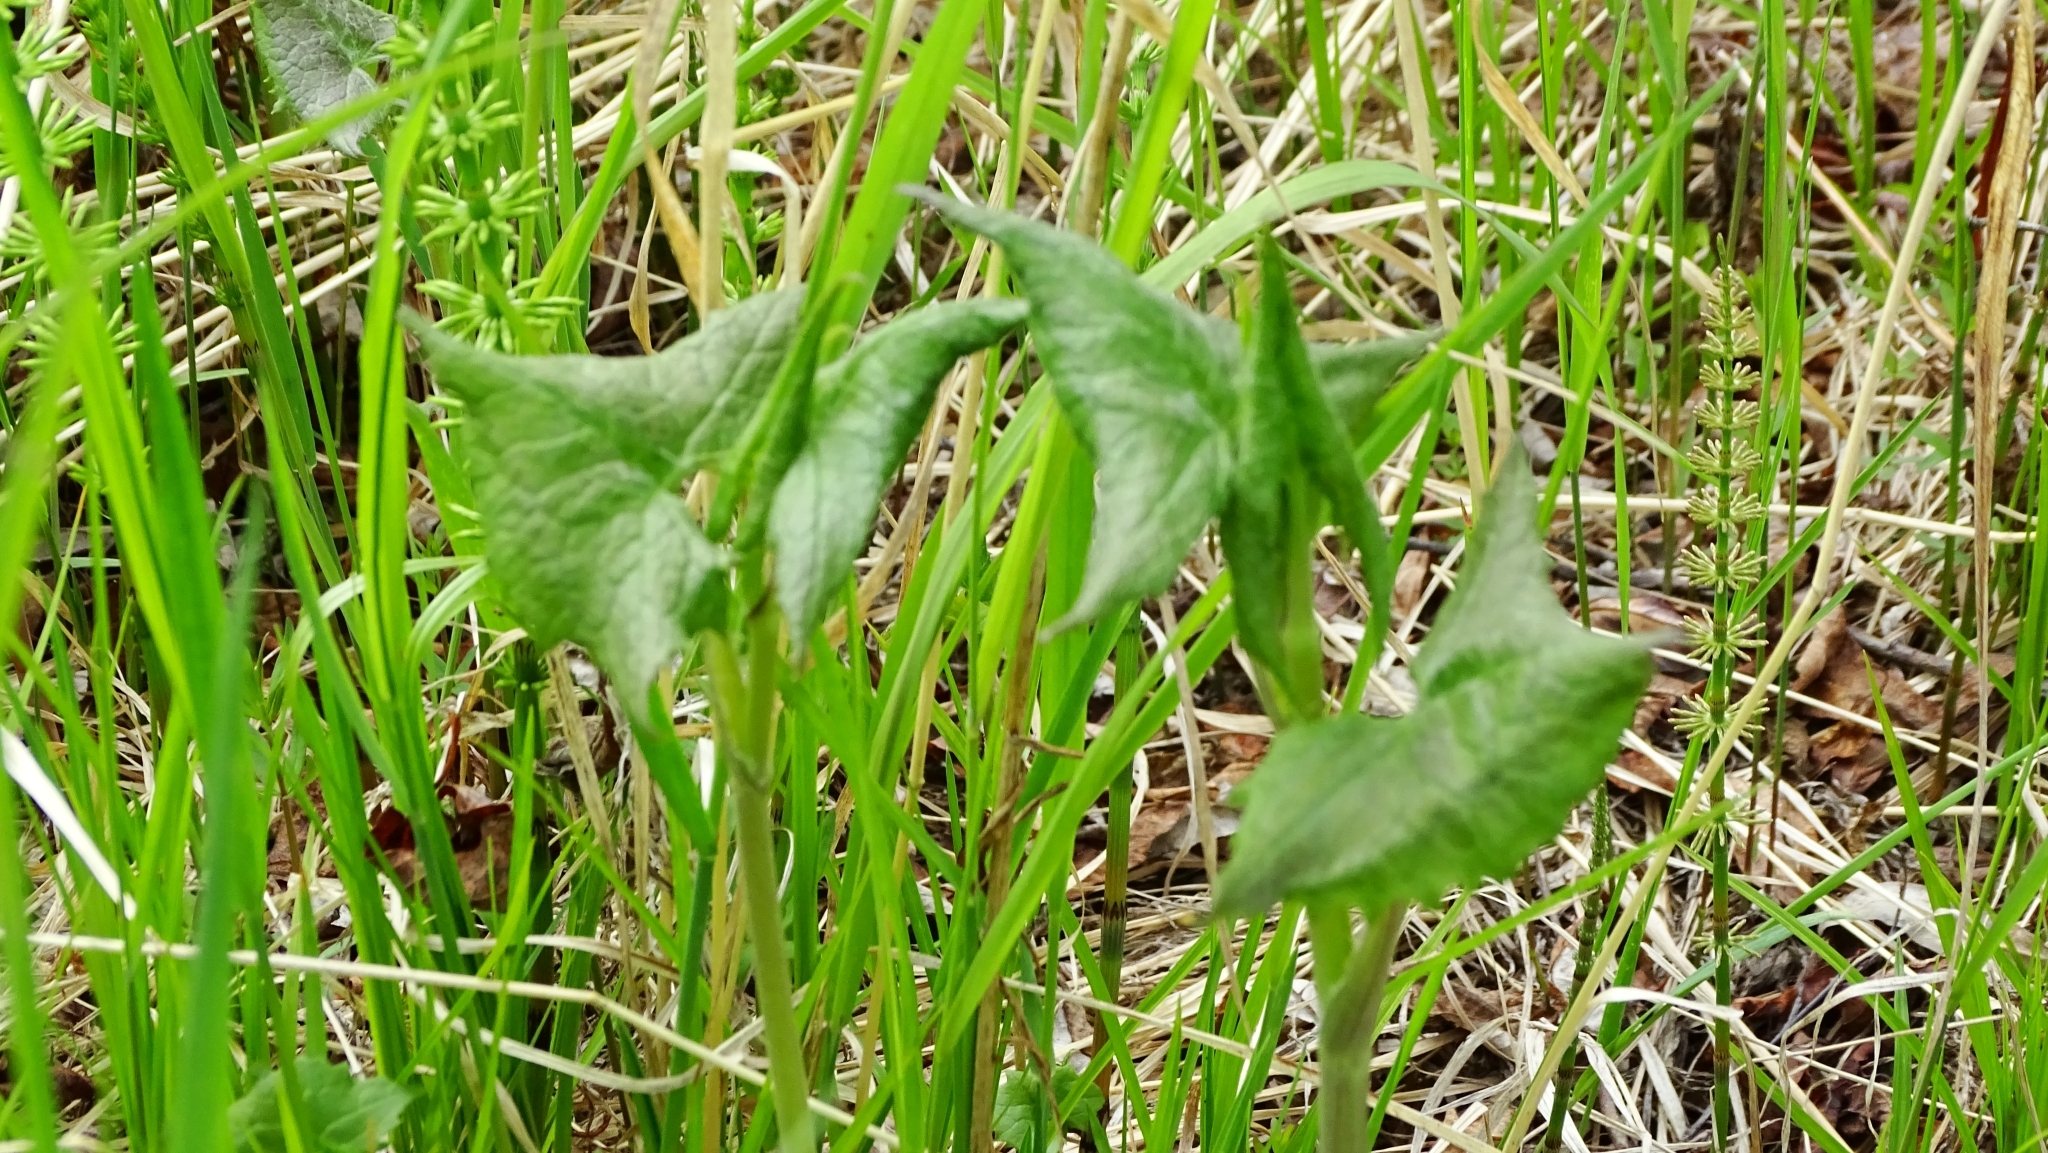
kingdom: Plantae
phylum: Tracheophyta
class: Magnoliopsida
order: Asterales
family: Asteraceae
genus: Parasenecio
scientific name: Parasenecio hastatus
